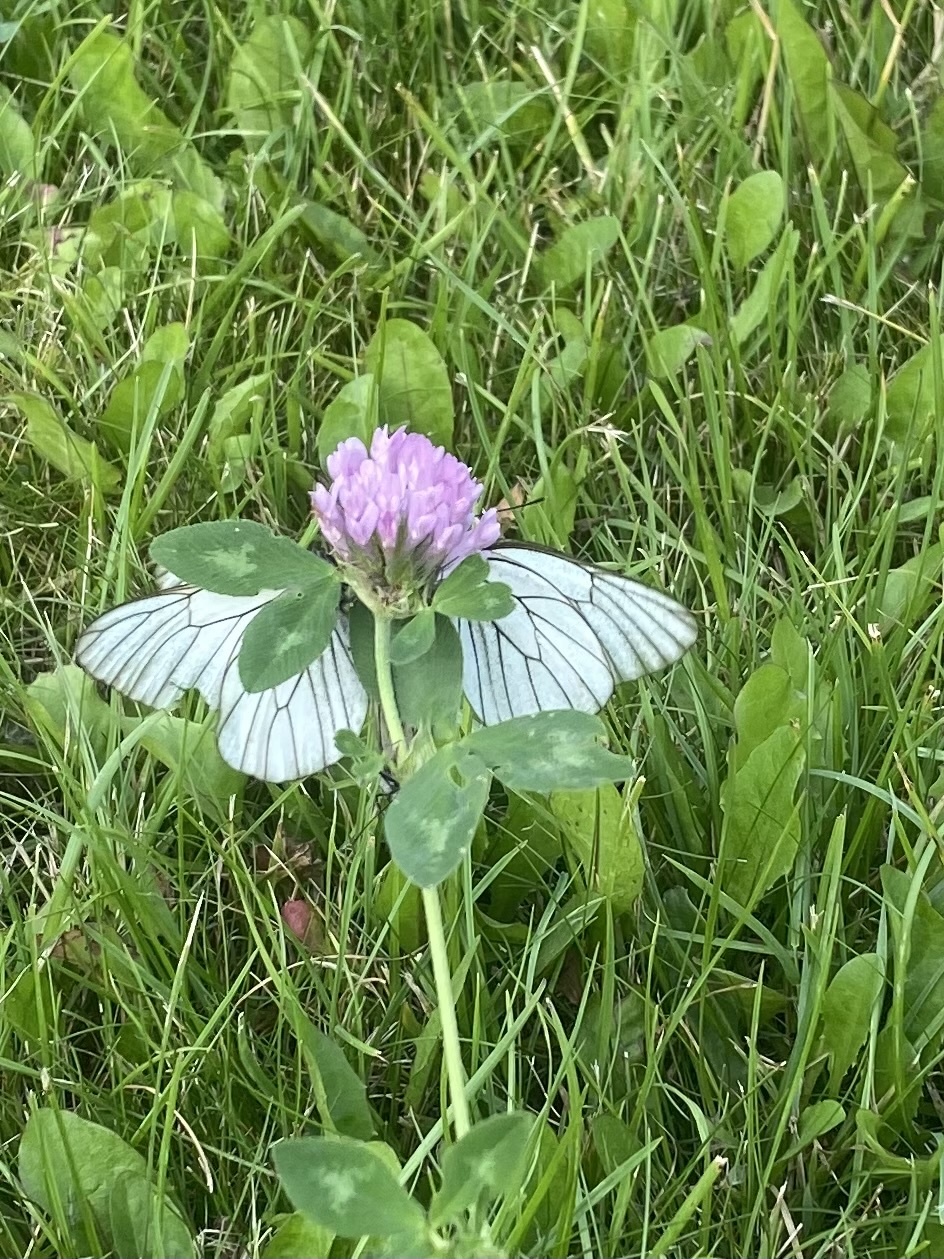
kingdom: Animalia
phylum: Arthropoda
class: Insecta
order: Lepidoptera
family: Pieridae
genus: Aporia
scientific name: Aporia crataegi
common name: Black-veined white
